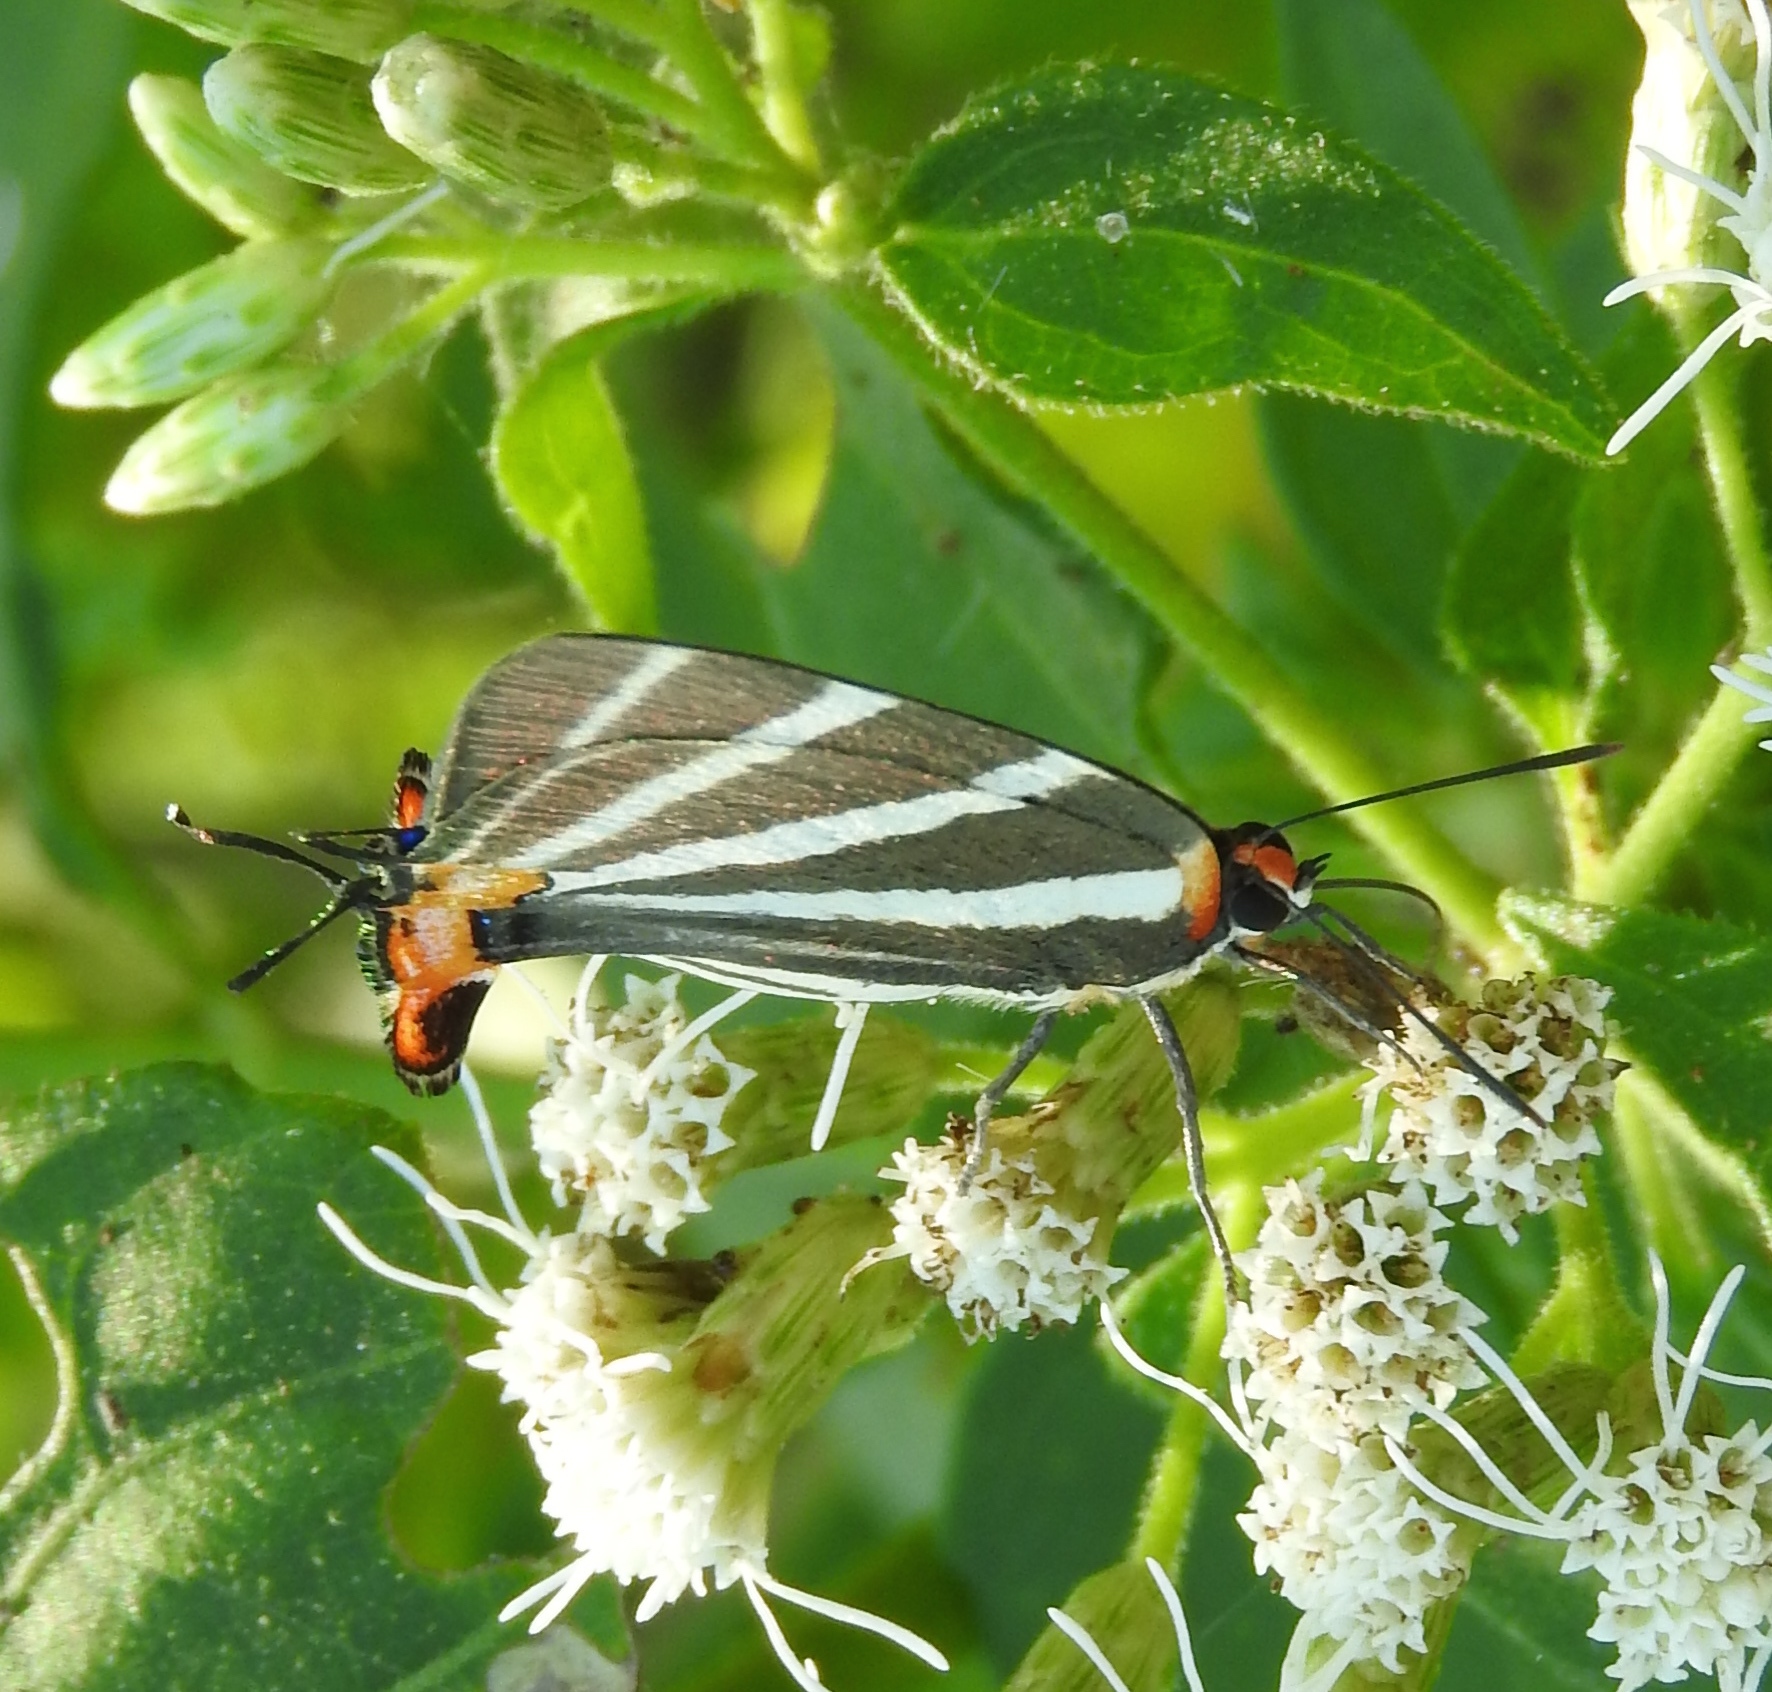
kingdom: Animalia
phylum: Arthropoda
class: Insecta
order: Lepidoptera
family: Lycaenidae
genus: Thecla
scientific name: Thecla bathildis
